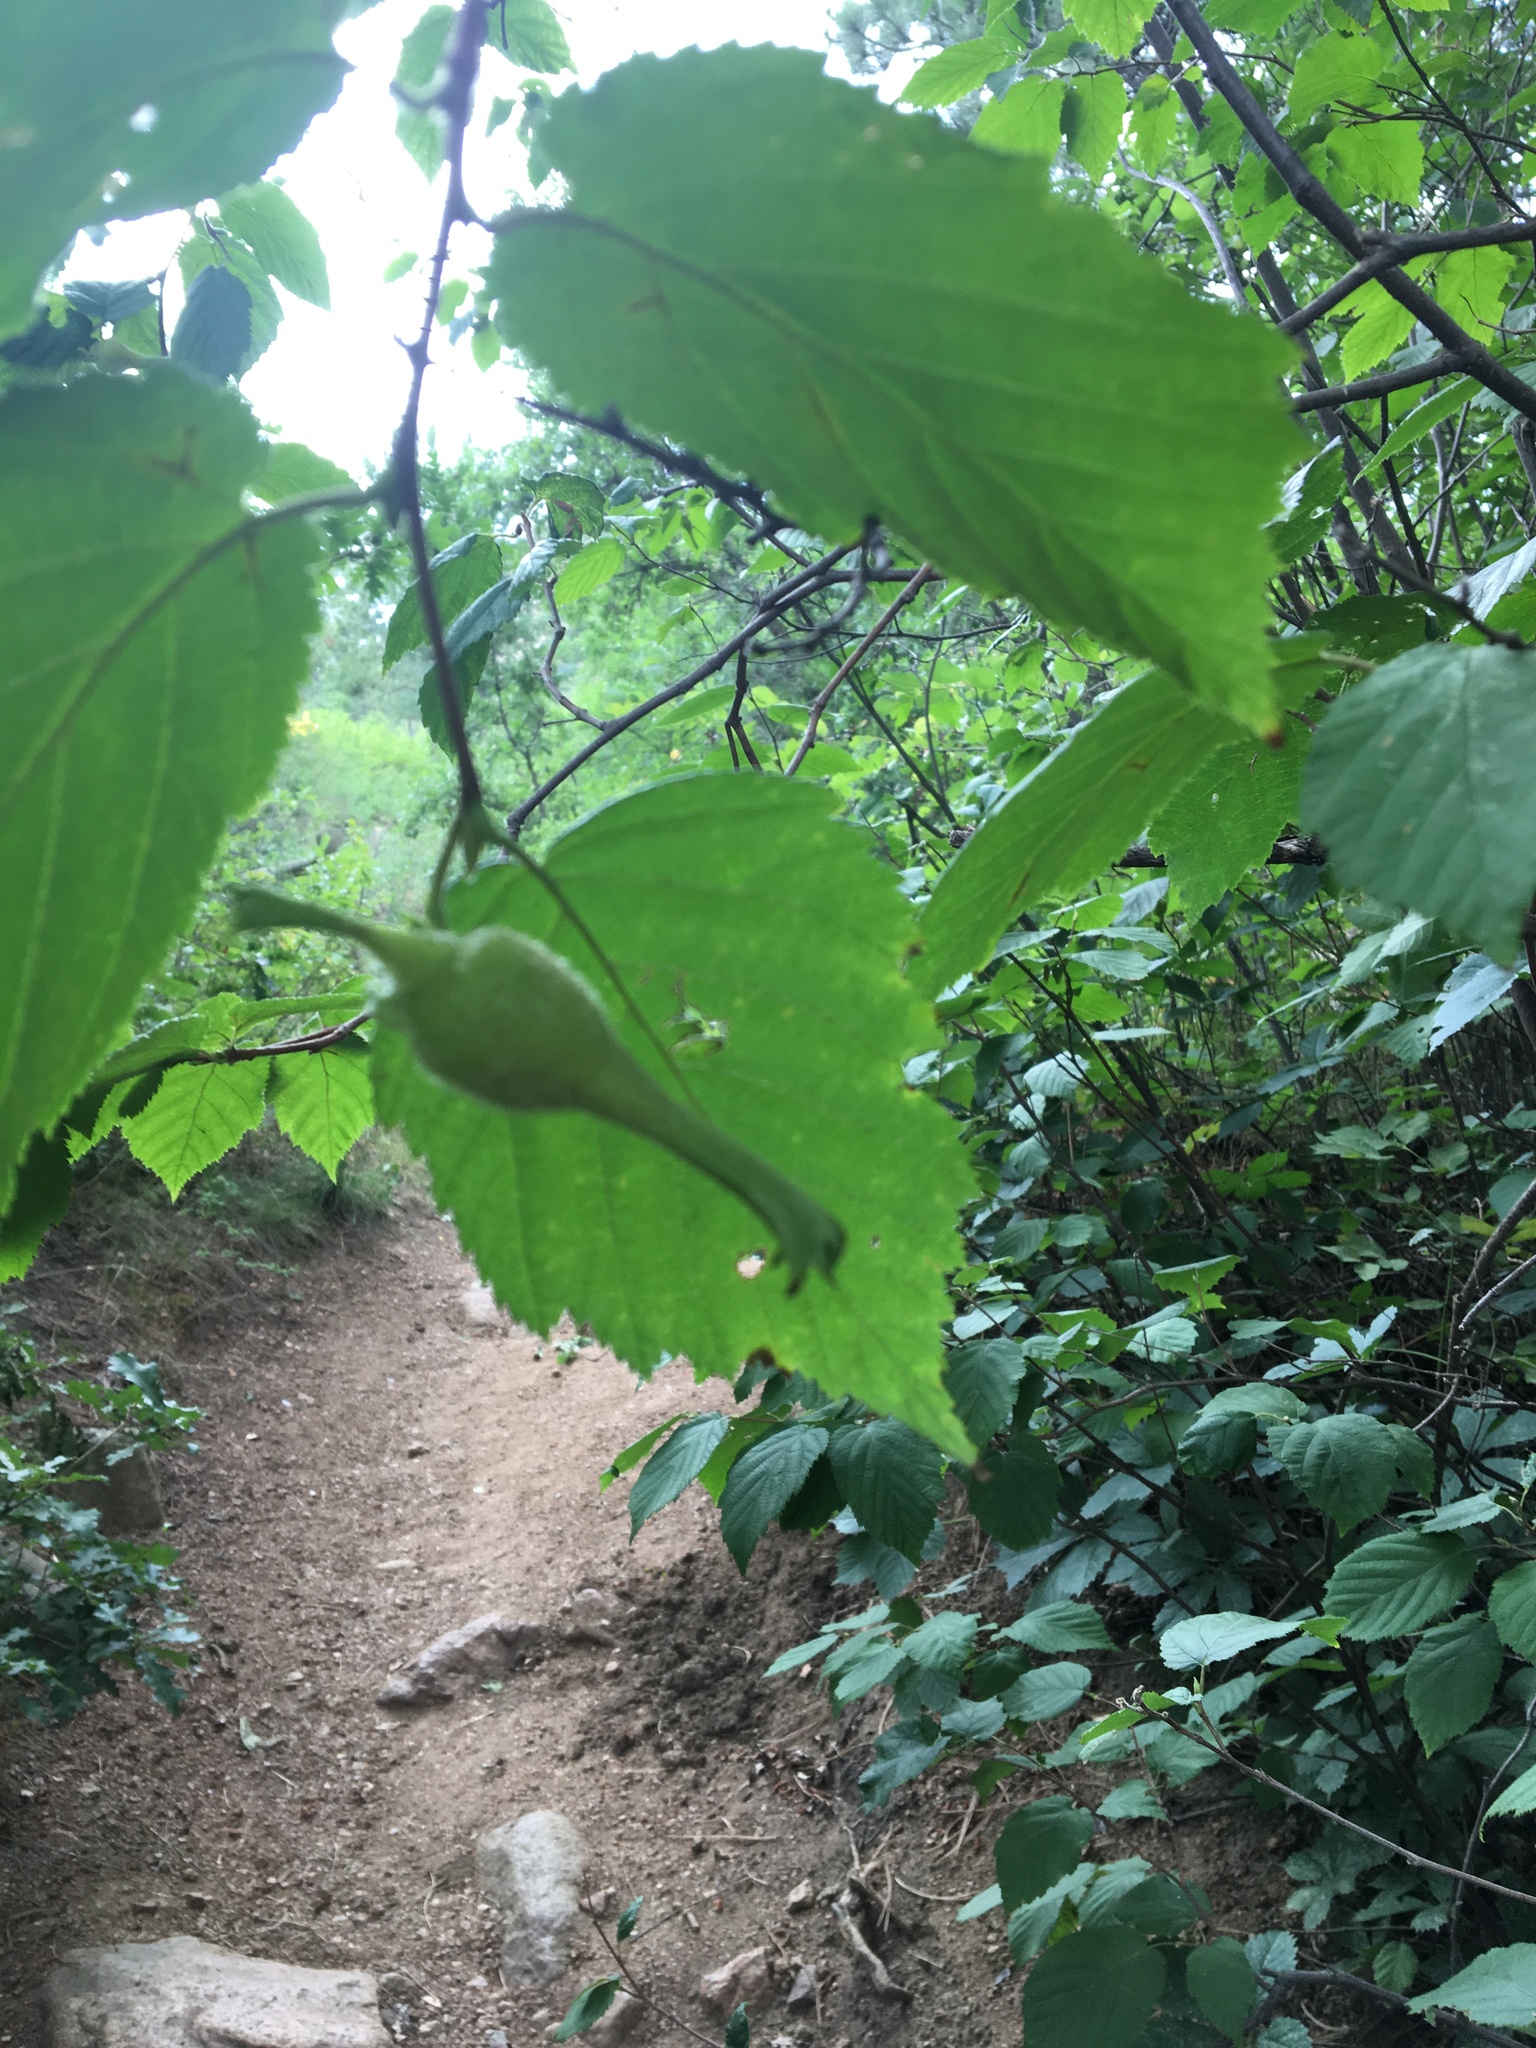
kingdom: Plantae
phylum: Tracheophyta
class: Magnoliopsida
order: Fagales
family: Betulaceae
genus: Corylus
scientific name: Corylus cornuta
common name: Beaked hazel
